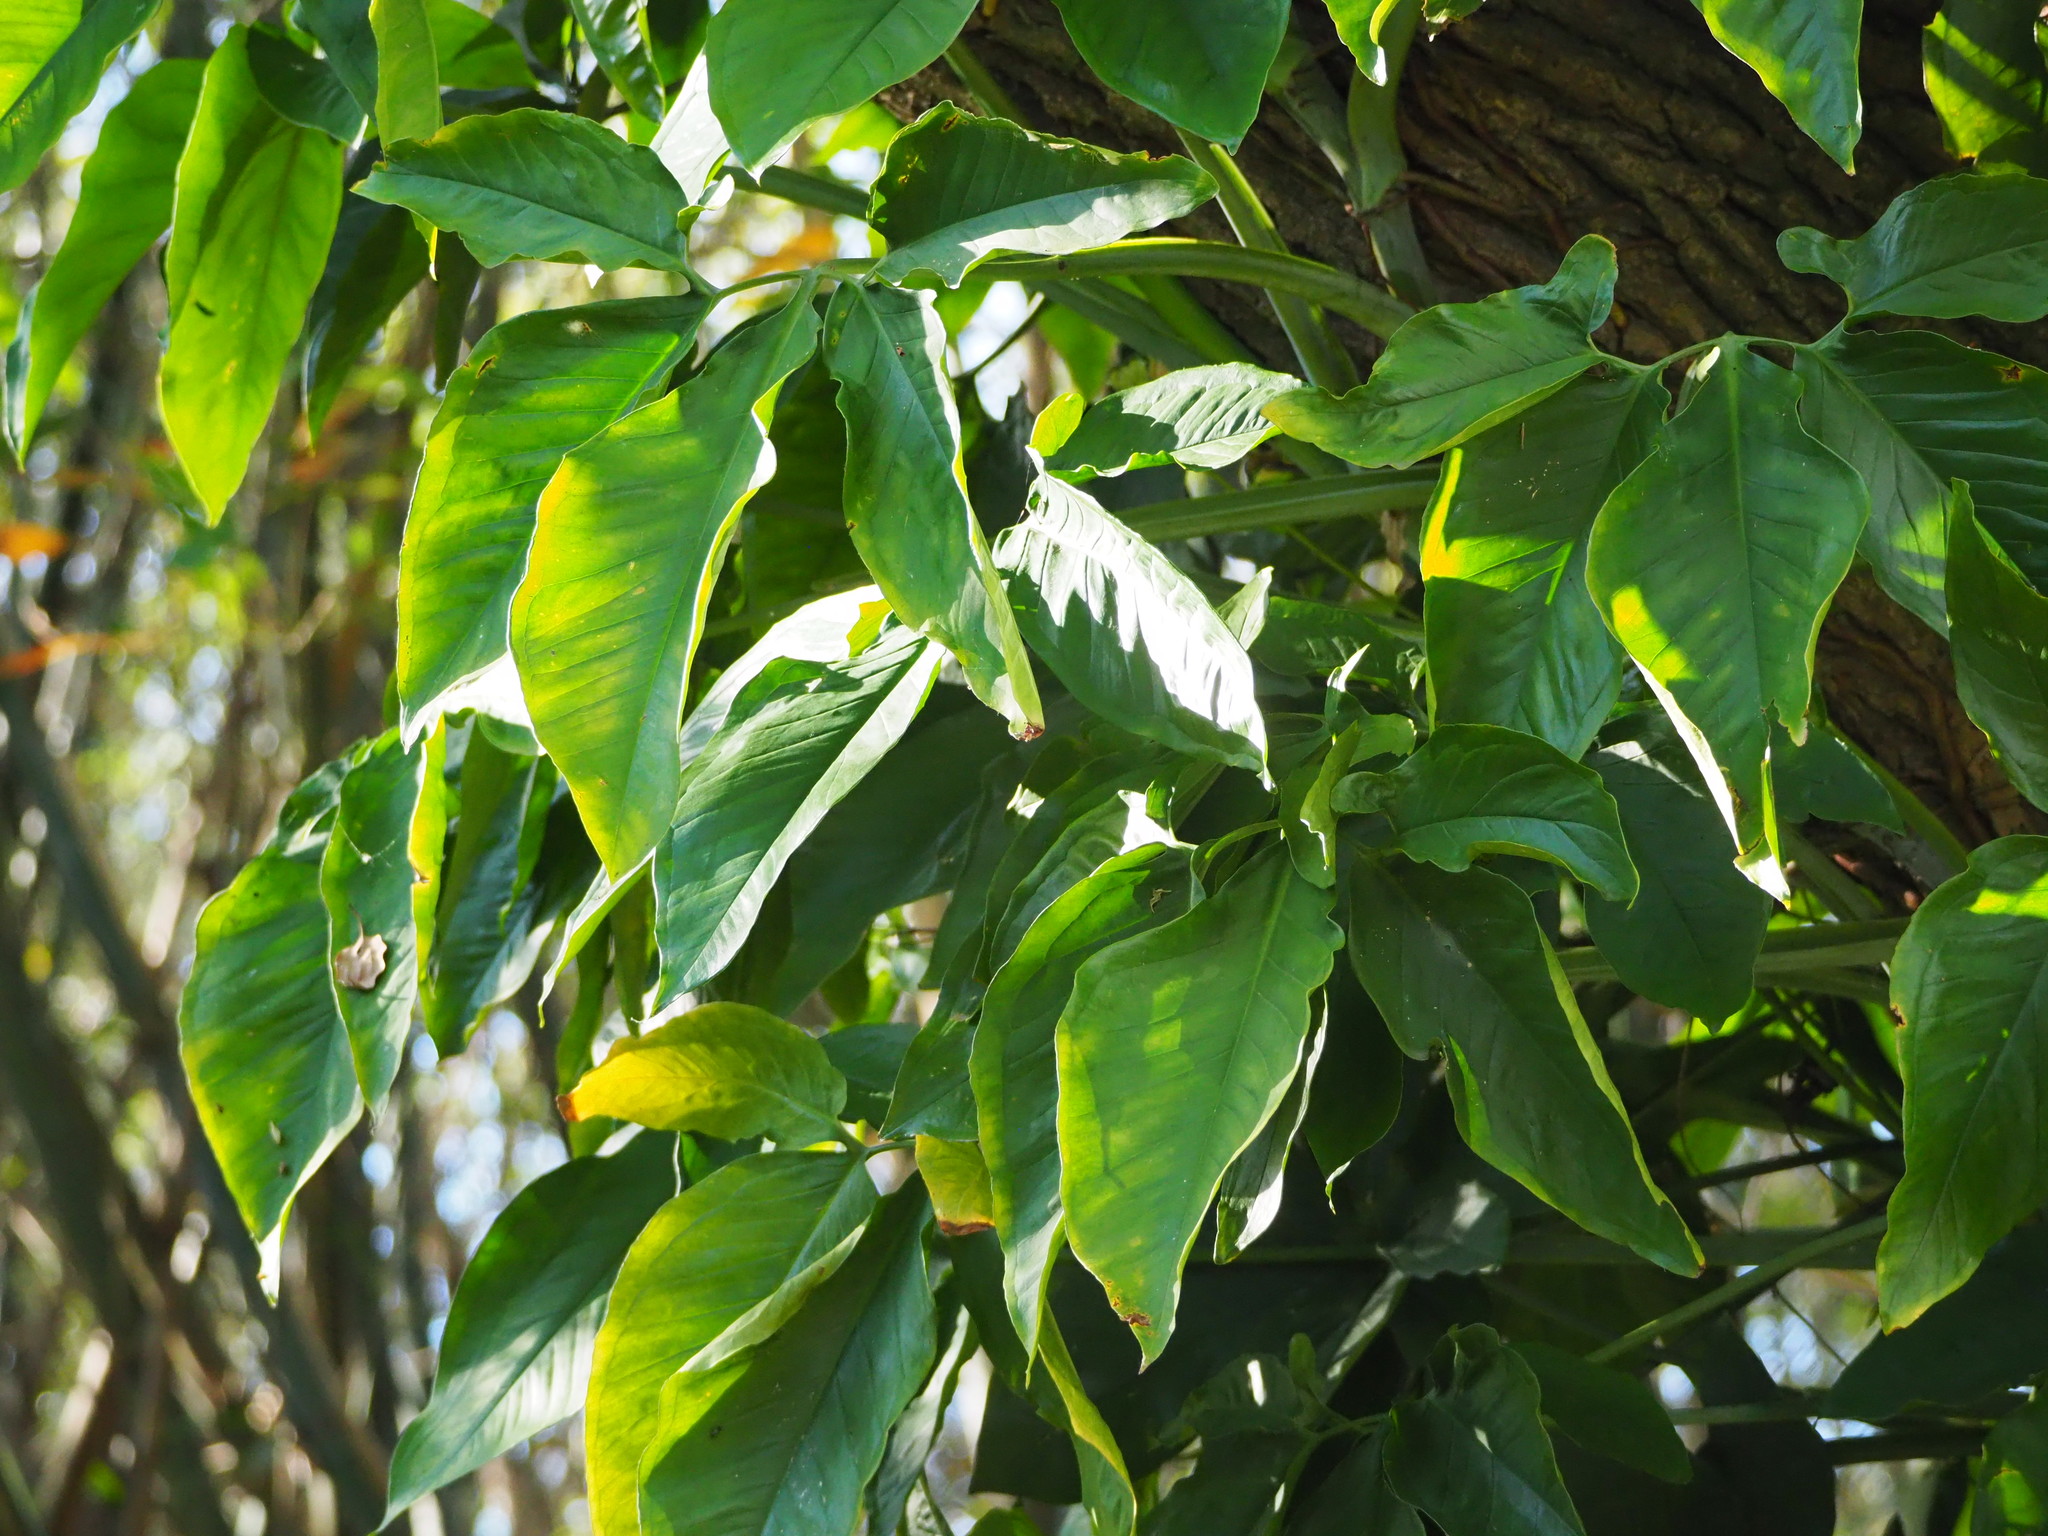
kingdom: Plantae
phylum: Tracheophyta
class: Liliopsida
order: Alismatales
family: Araceae
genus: Syngonium
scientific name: Syngonium angustatum
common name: Fivefingers
